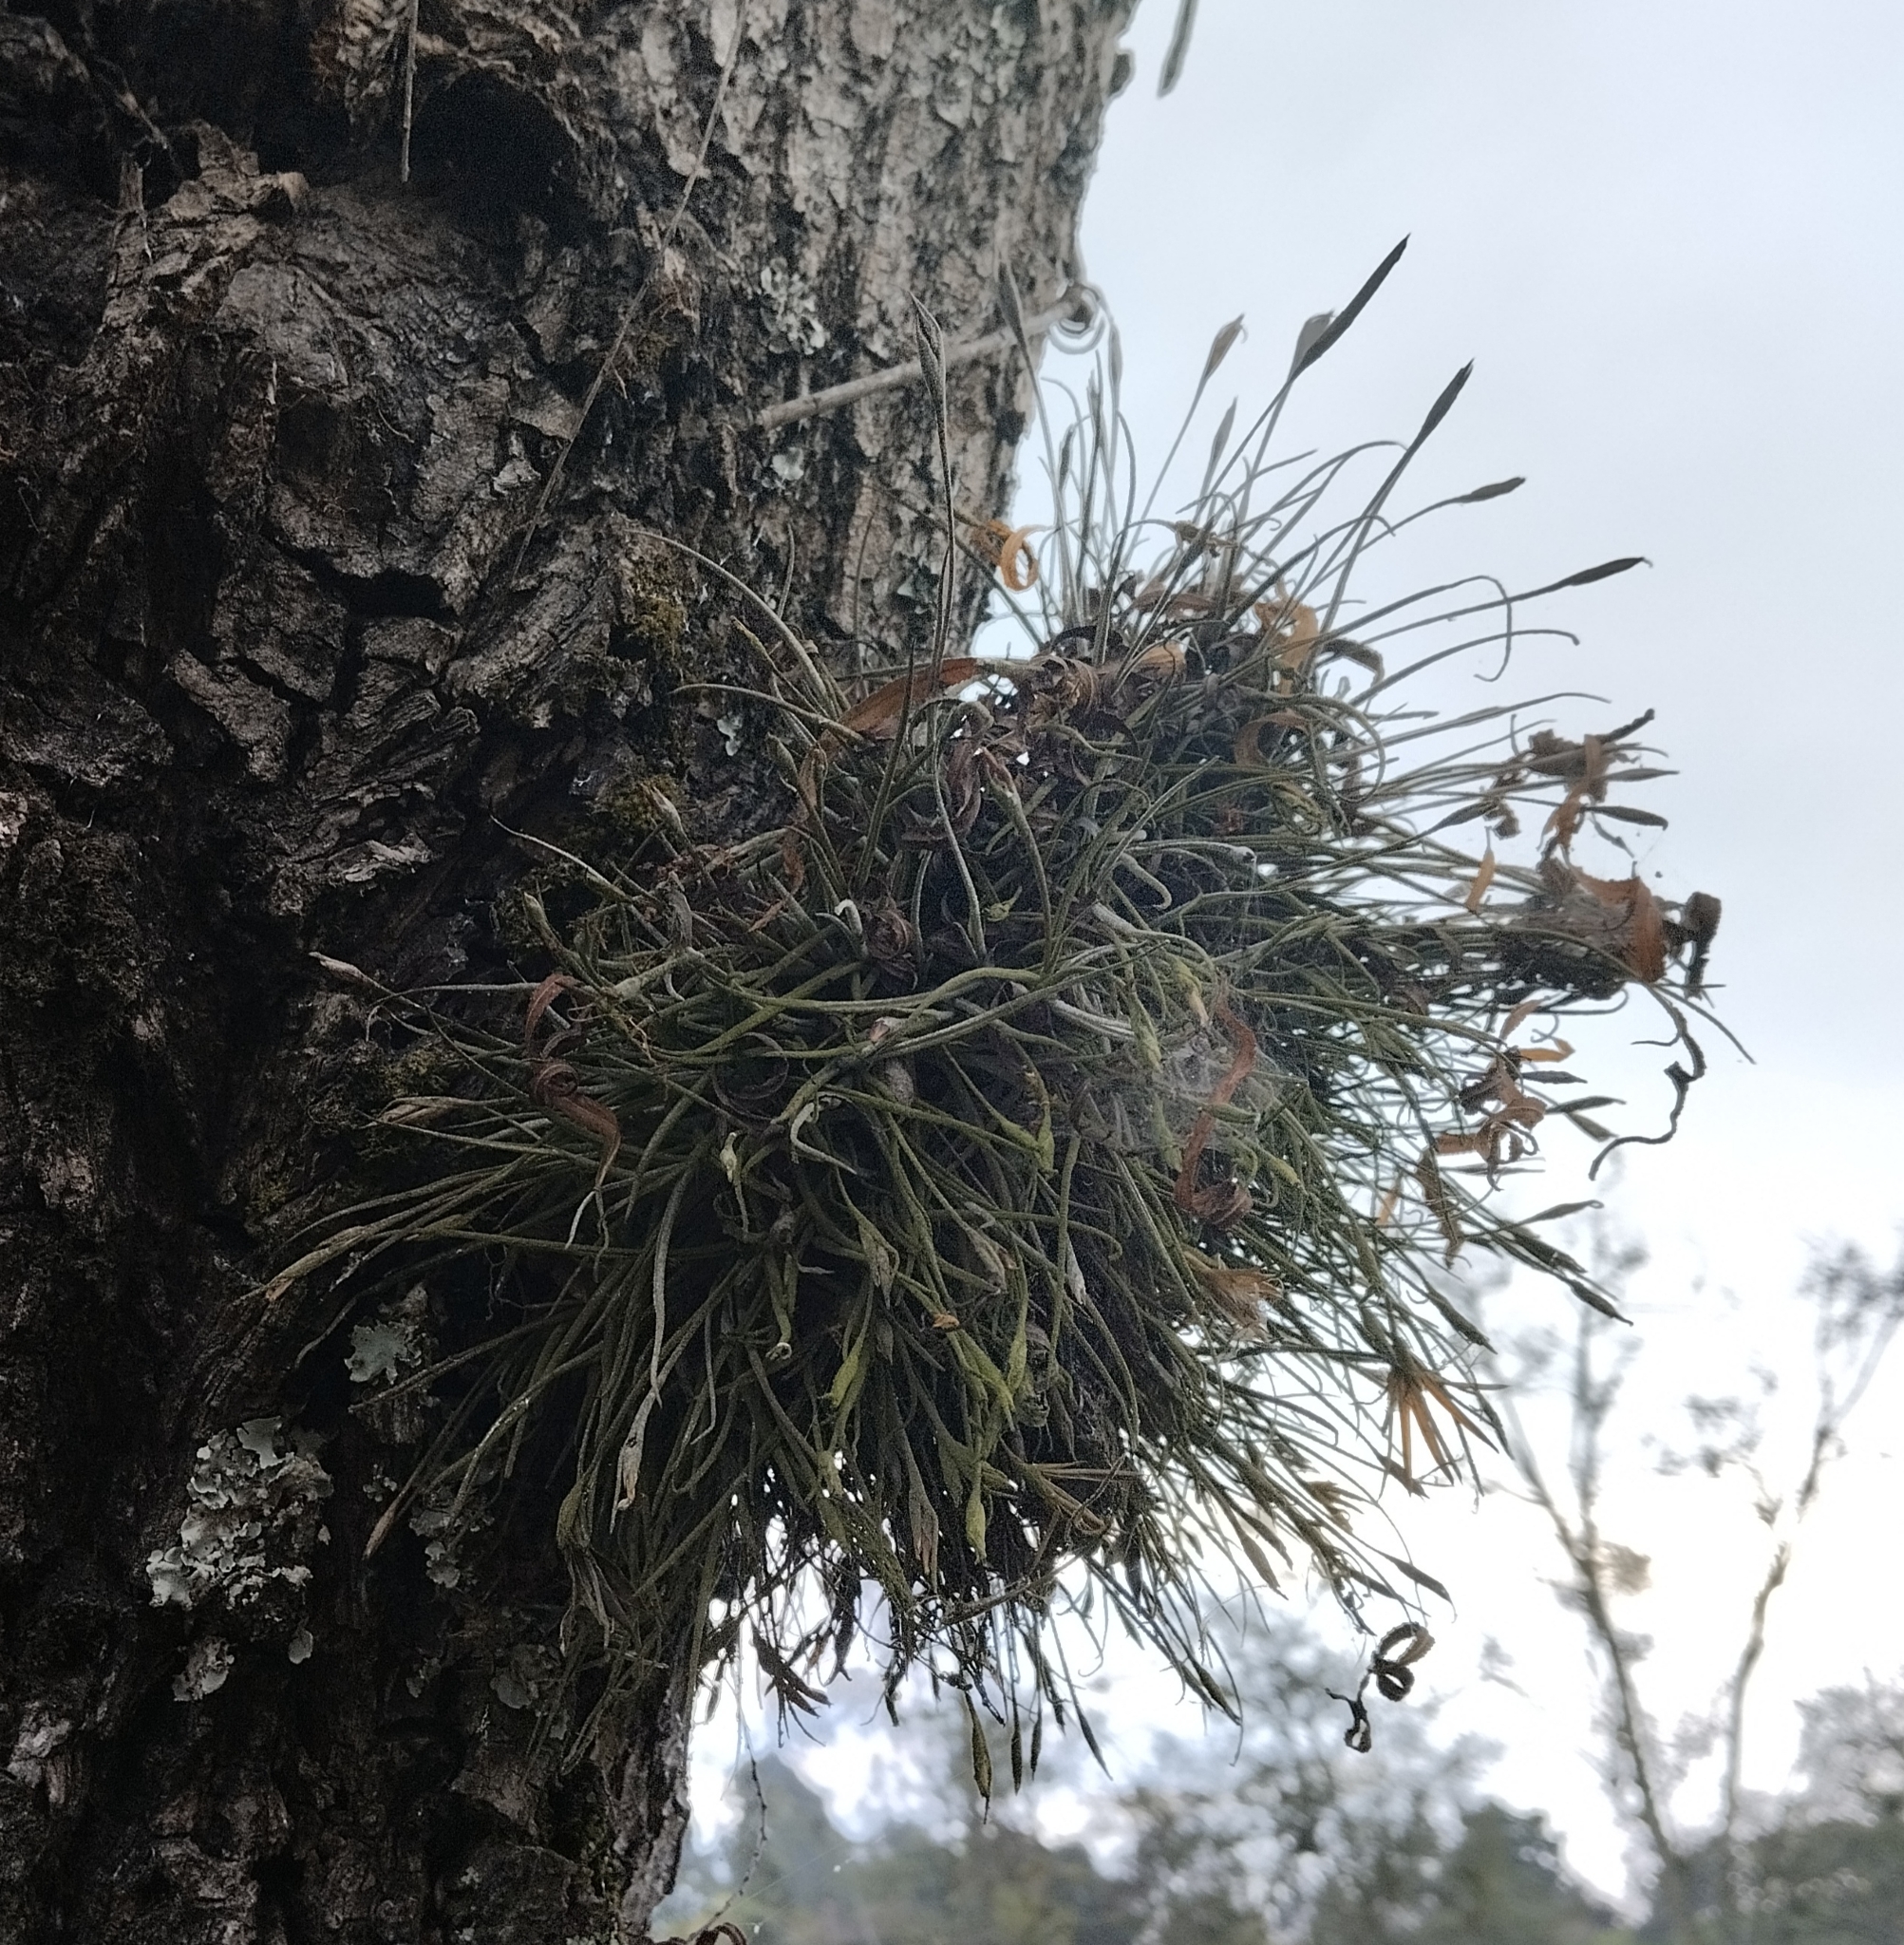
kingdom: Plantae
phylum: Tracheophyta
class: Liliopsida
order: Poales
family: Bromeliaceae
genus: Tillandsia
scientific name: Tillandsia recurvata
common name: Small ballmoss
